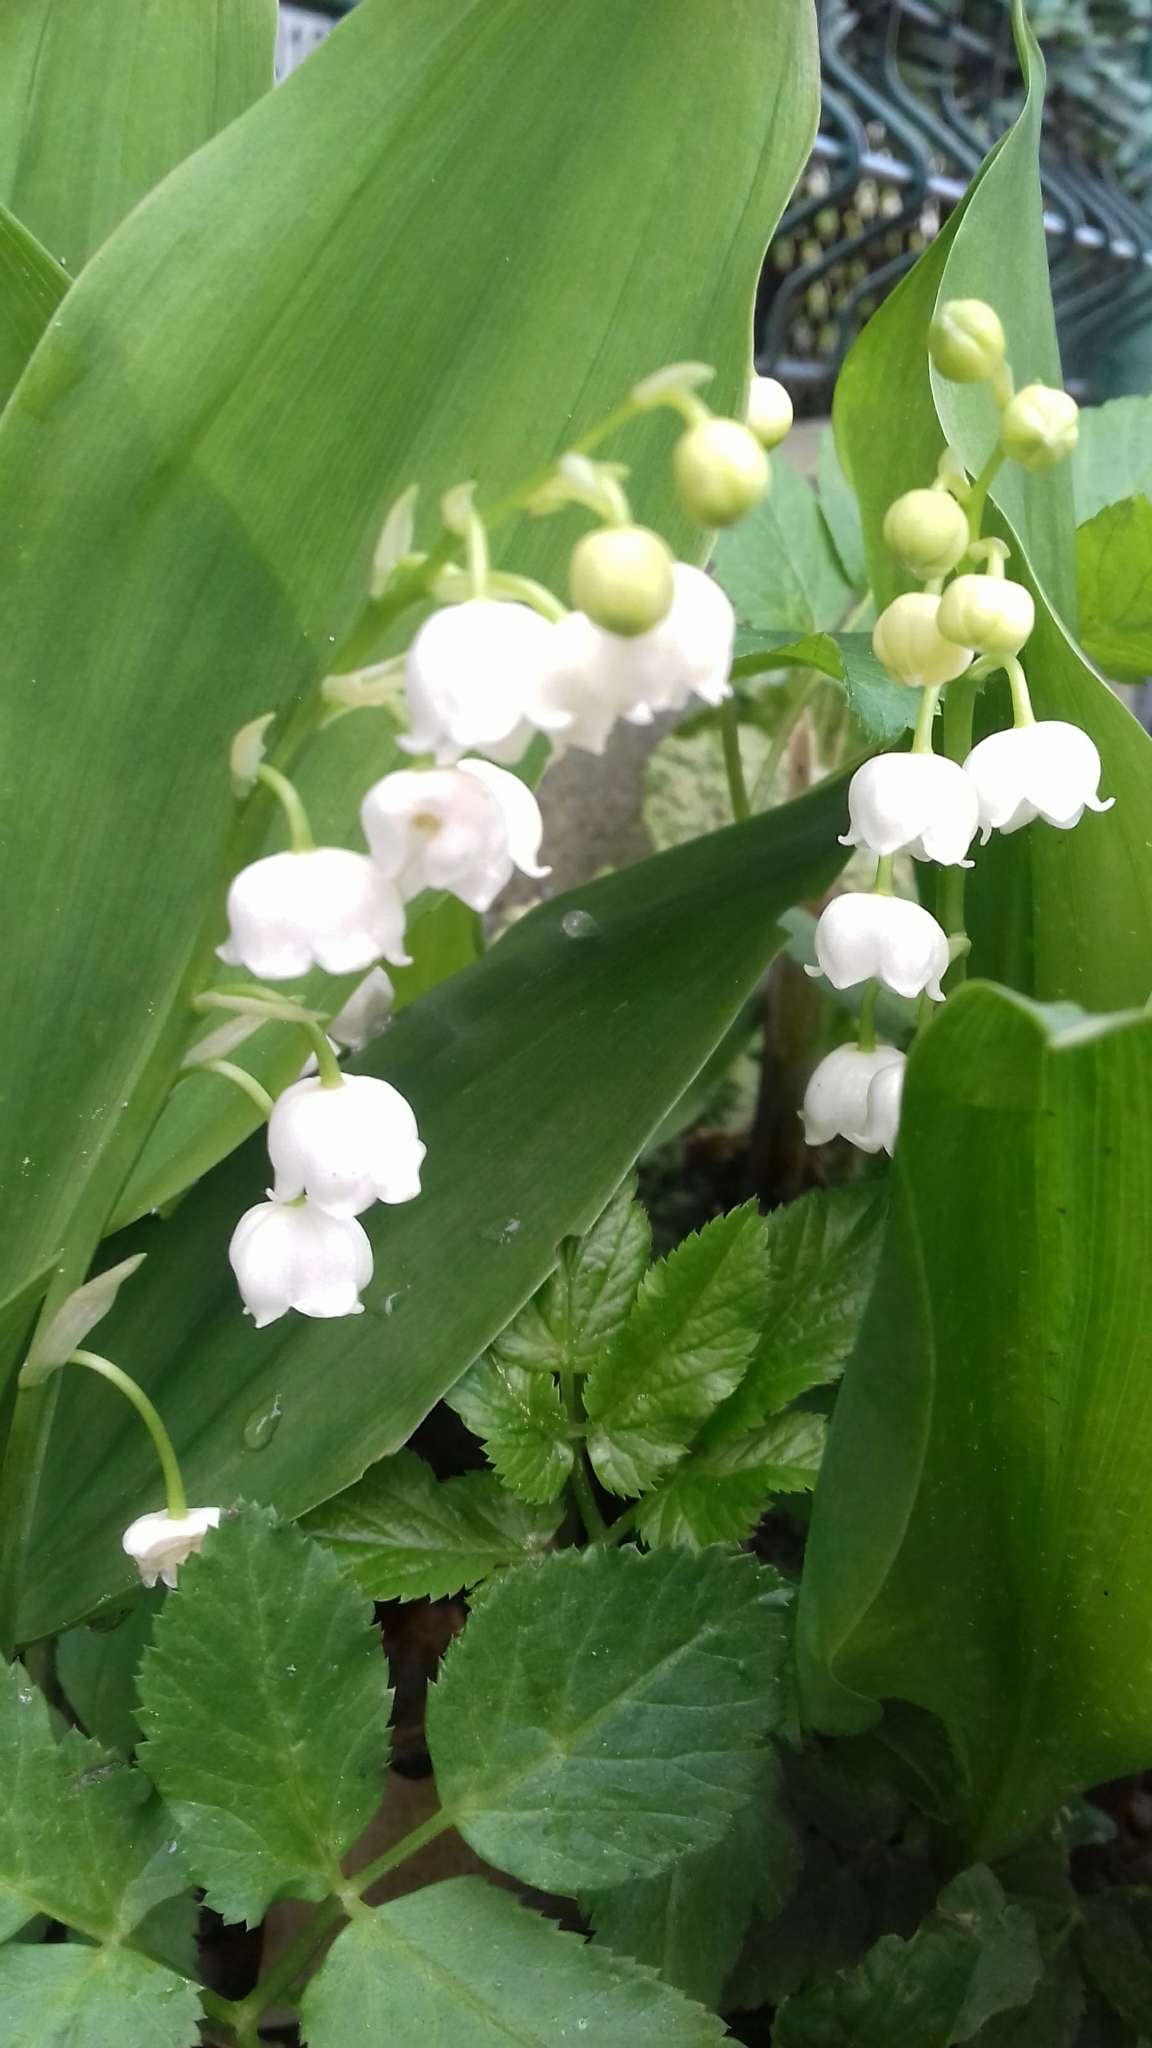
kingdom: Plantae
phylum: Tracheophyta
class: Liliopsida
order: Asparagales
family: Asparagaceae
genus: Convallaria
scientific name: Convallaria majalis
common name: Lily-of-the-valley
